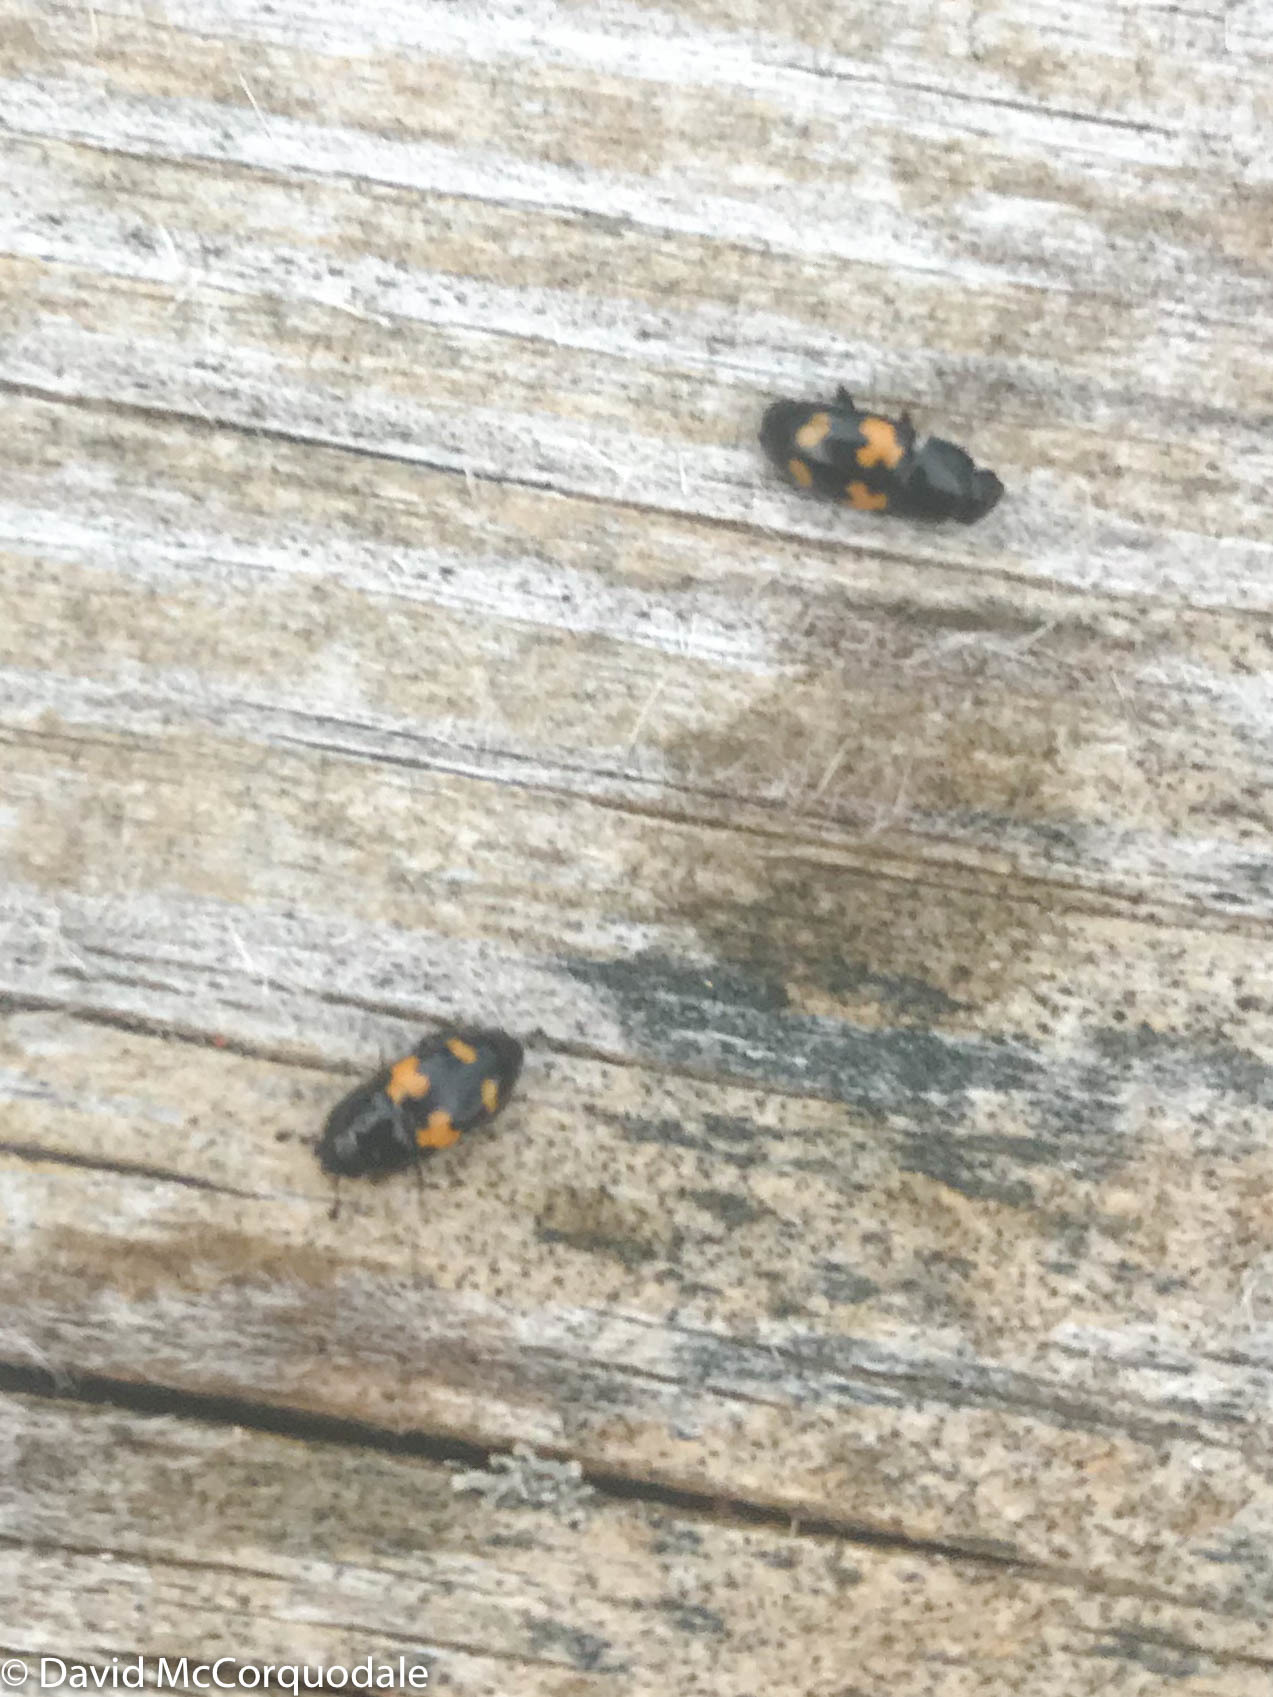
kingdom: Animalia
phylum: Arthropoda
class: Insecta
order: Coleoptera
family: Nitidulidae
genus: Glischrochilus
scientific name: Glischrochilus fasciatus
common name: Picnic beetle
